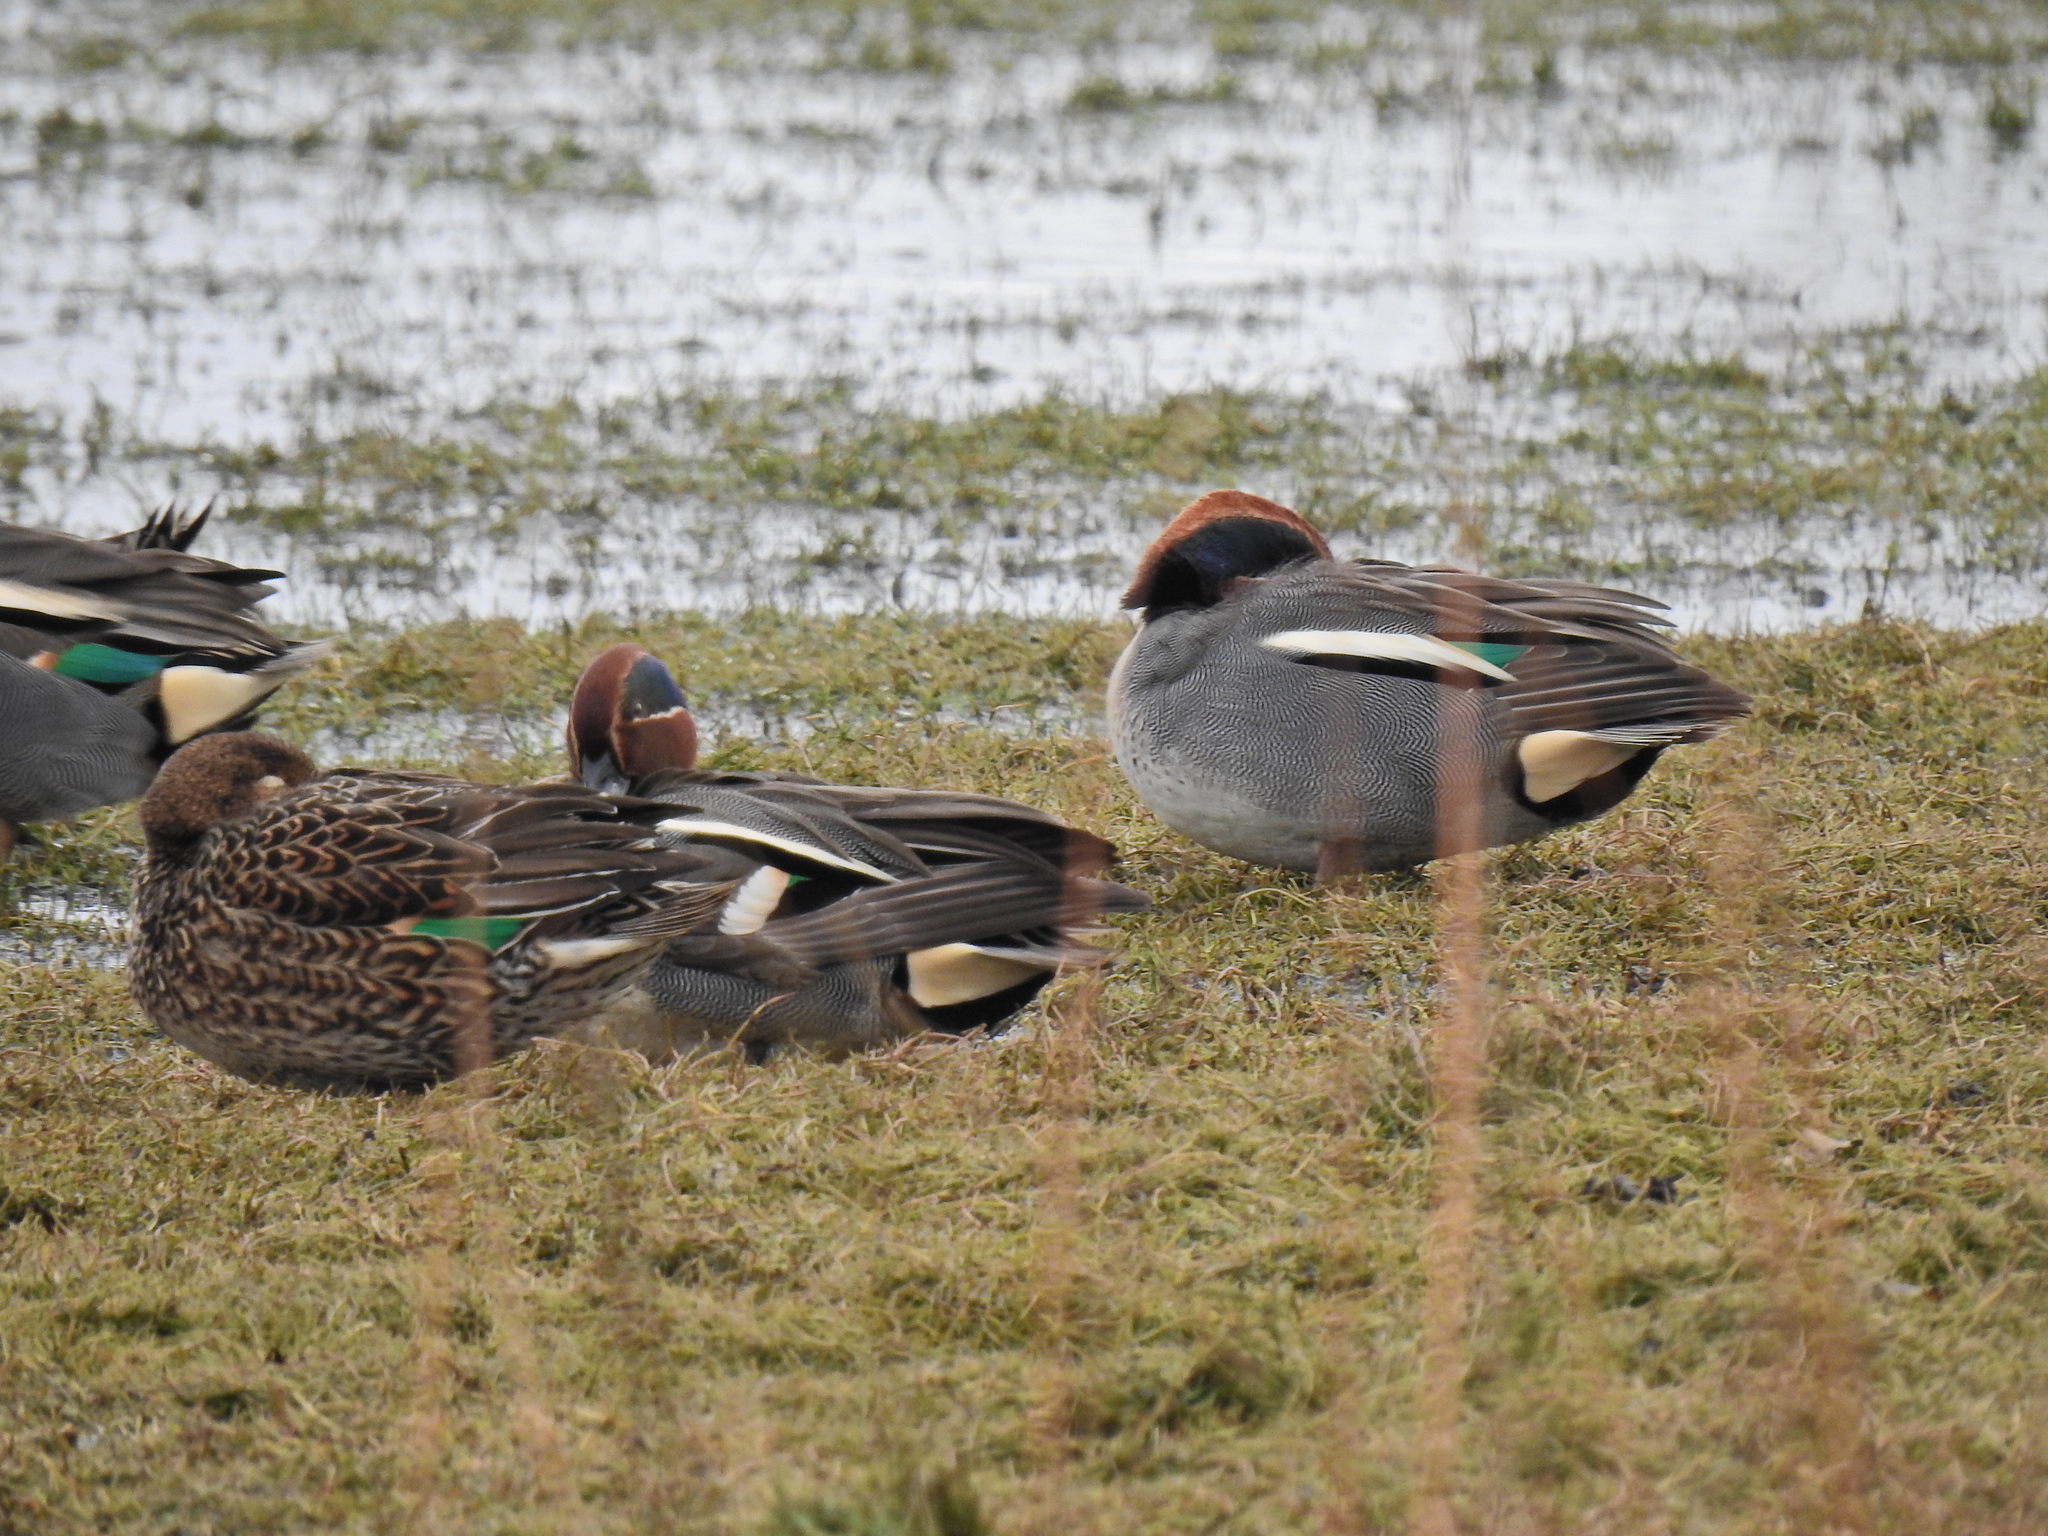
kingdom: Animalia
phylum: Chordata
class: Aves
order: Anseriformes
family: Anatidae
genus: Anas
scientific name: Anas crecca
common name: Eurasian teal
